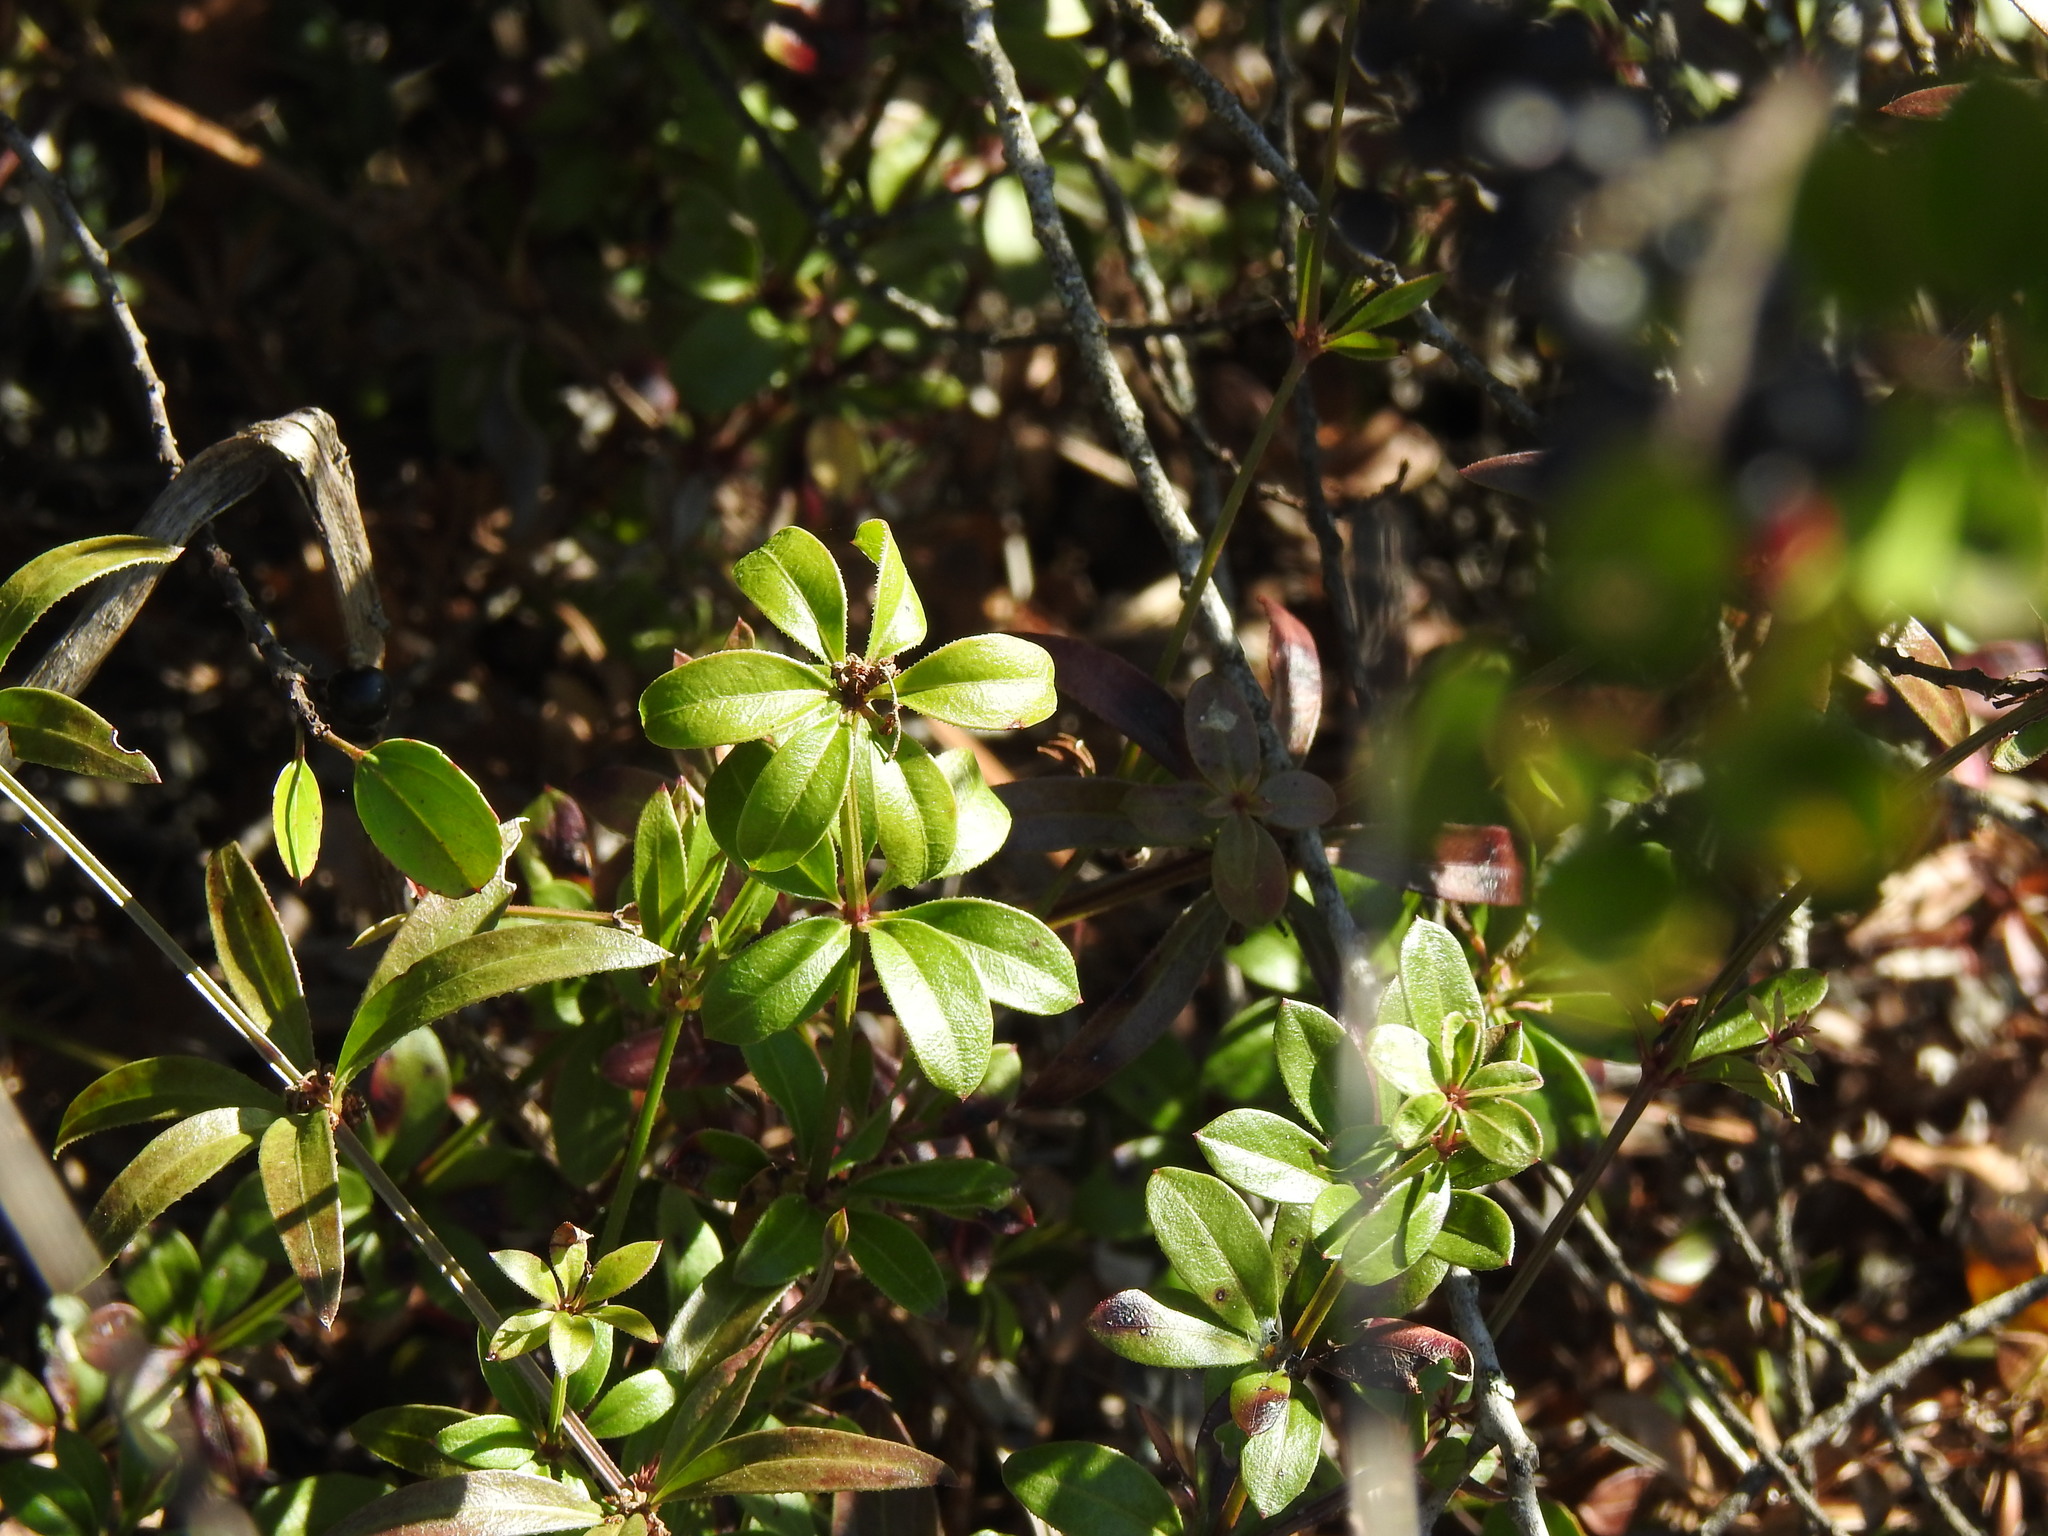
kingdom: Plantae
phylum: Tracheophyta
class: Magnoliopsida
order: Gentianales
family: Rubiaceae
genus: Rubia
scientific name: Rubia peregrina
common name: Wild madder
